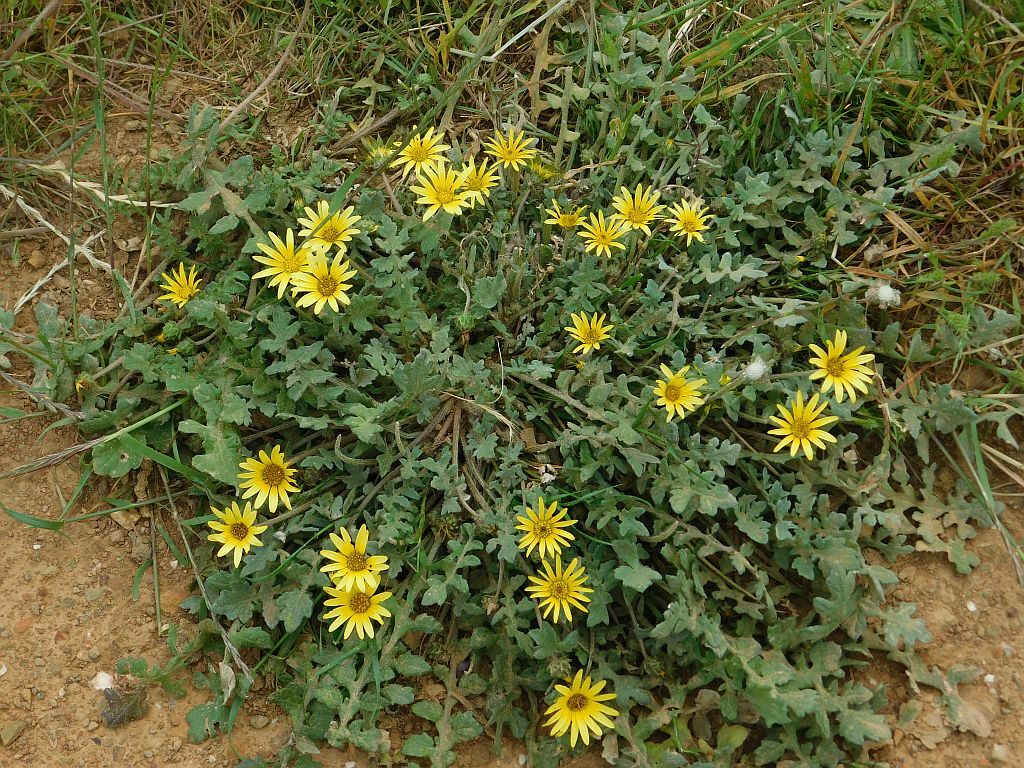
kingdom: Plantae
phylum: Tracheophyta
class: Magnoliopsida
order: Asterales
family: Asteraceae
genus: Arctotheca
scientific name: Arctotheca calendula
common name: Capeweed
